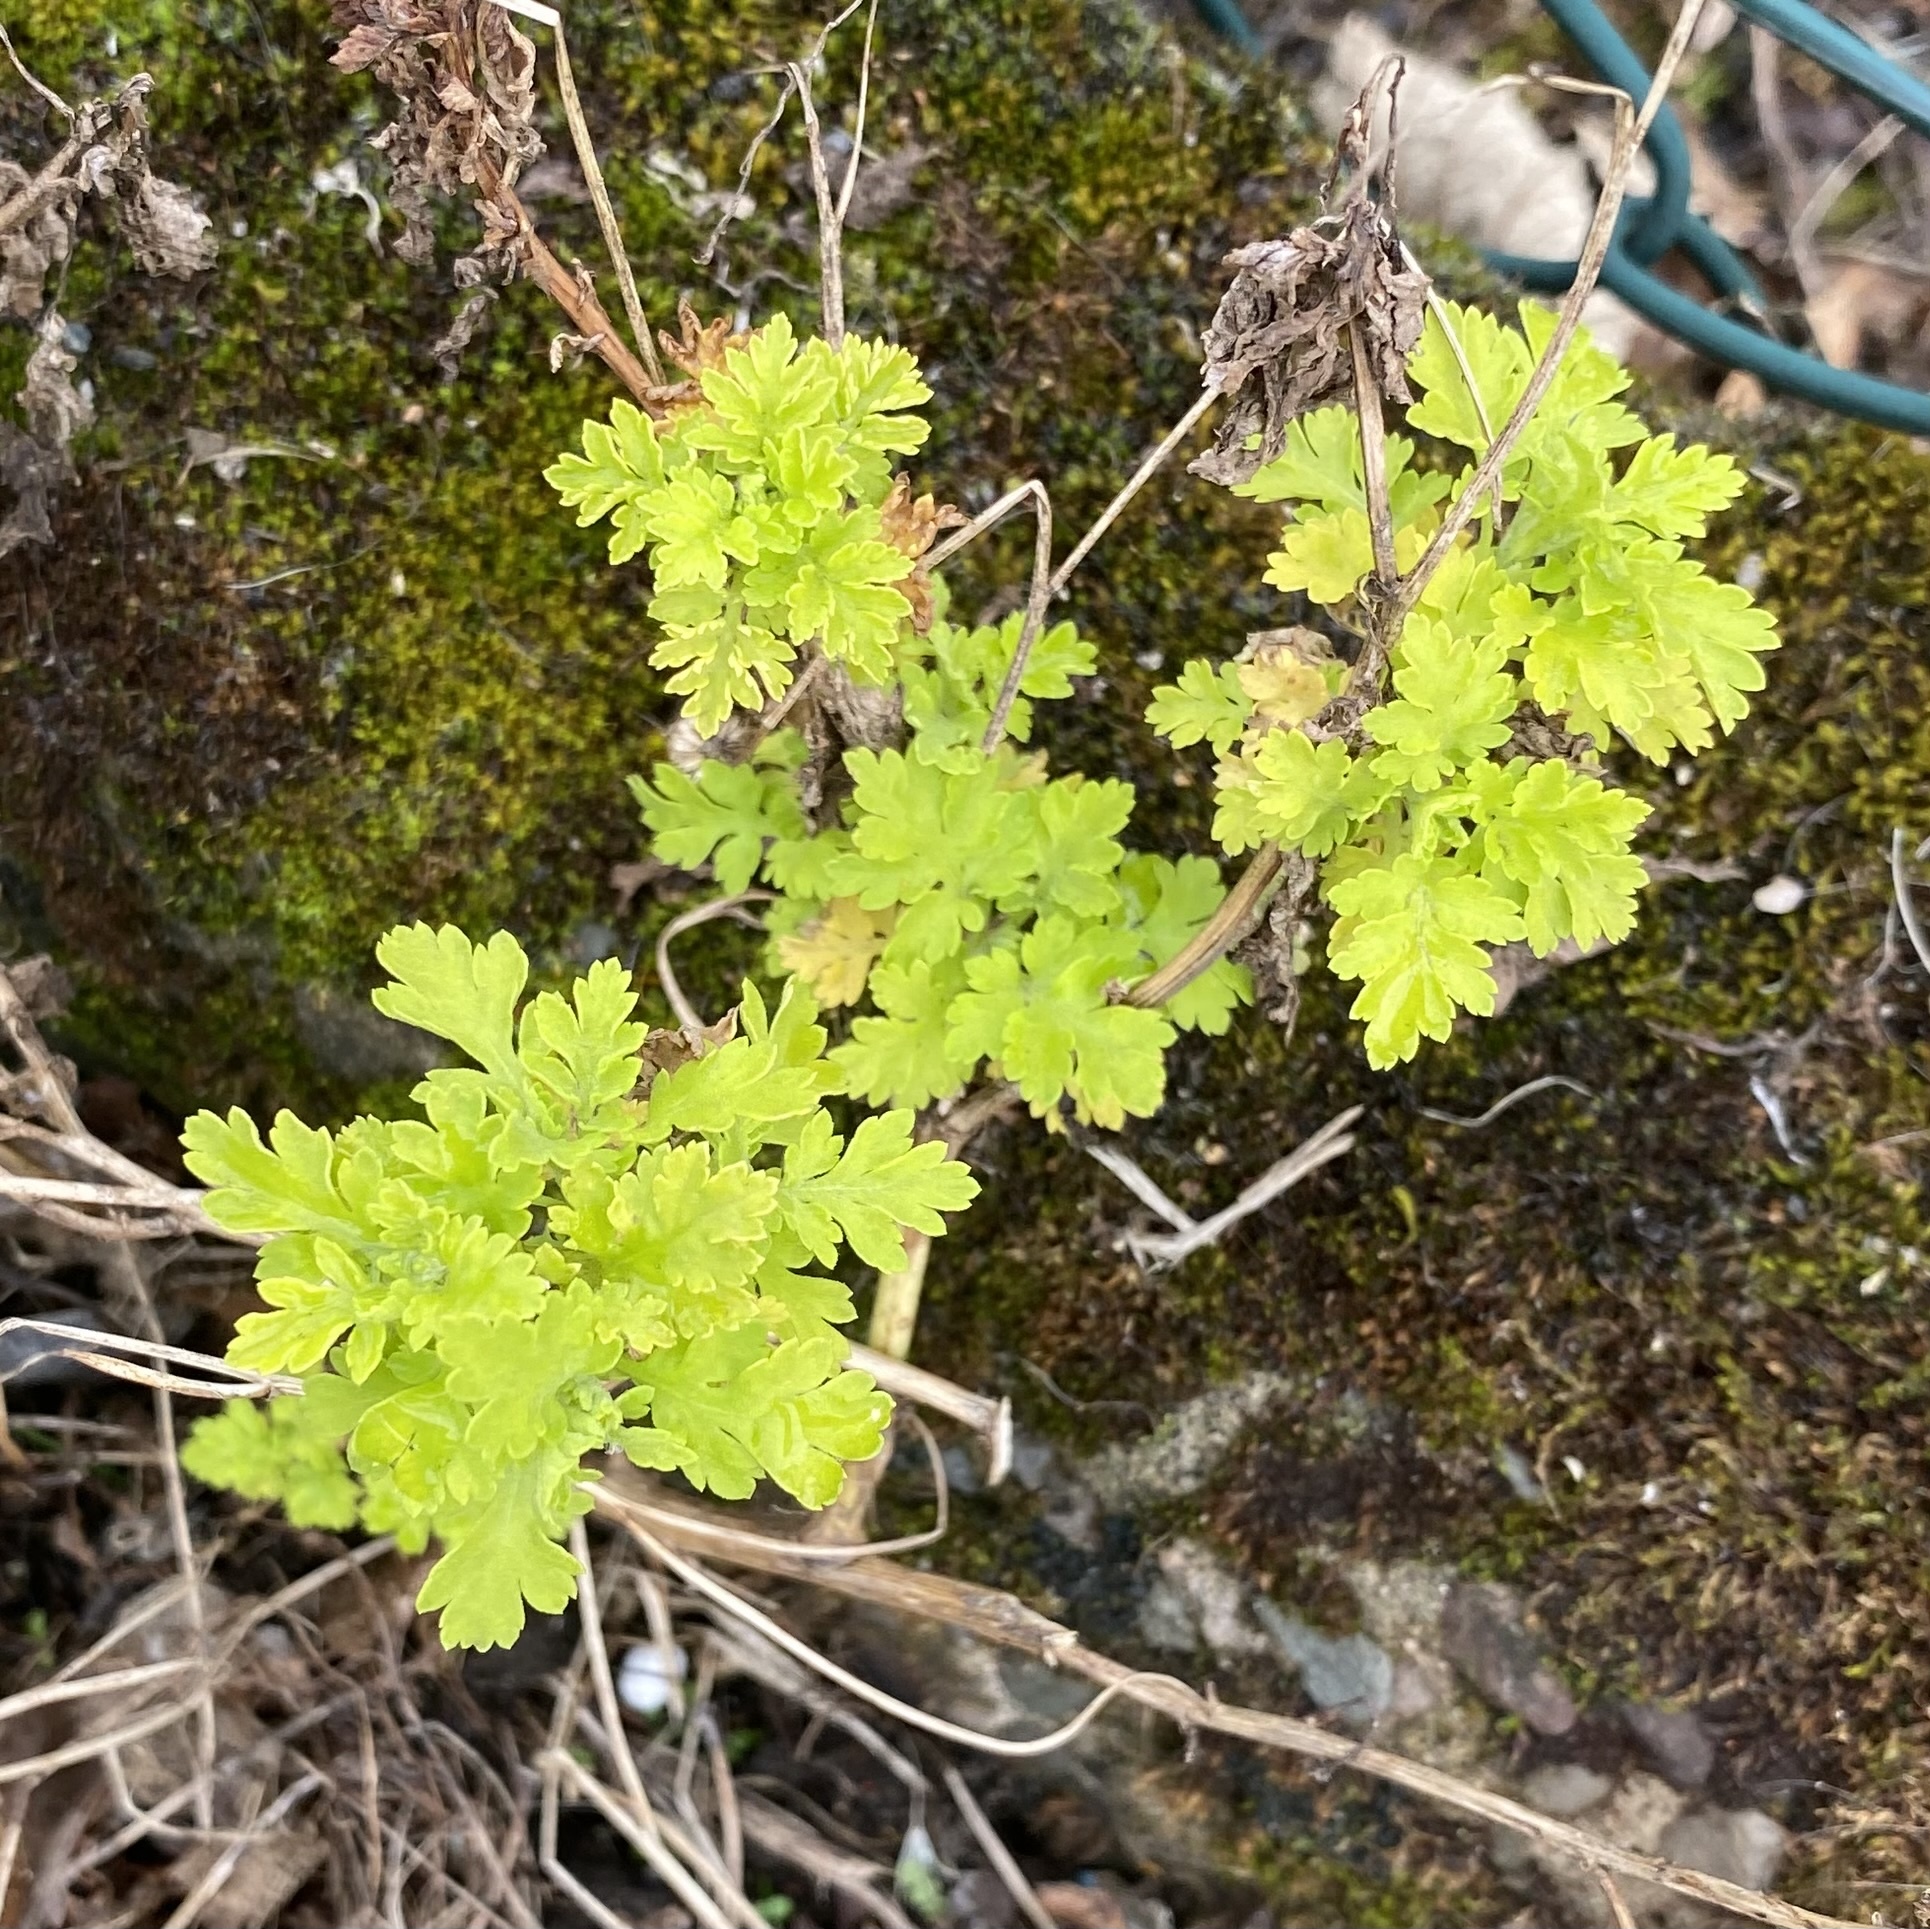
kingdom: Plantae
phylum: Tracheophyta
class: Magnoliopsida
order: Asterales
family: Asteraceae
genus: Tanacetum
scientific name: Tanacetum parthenium
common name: Feverfew
